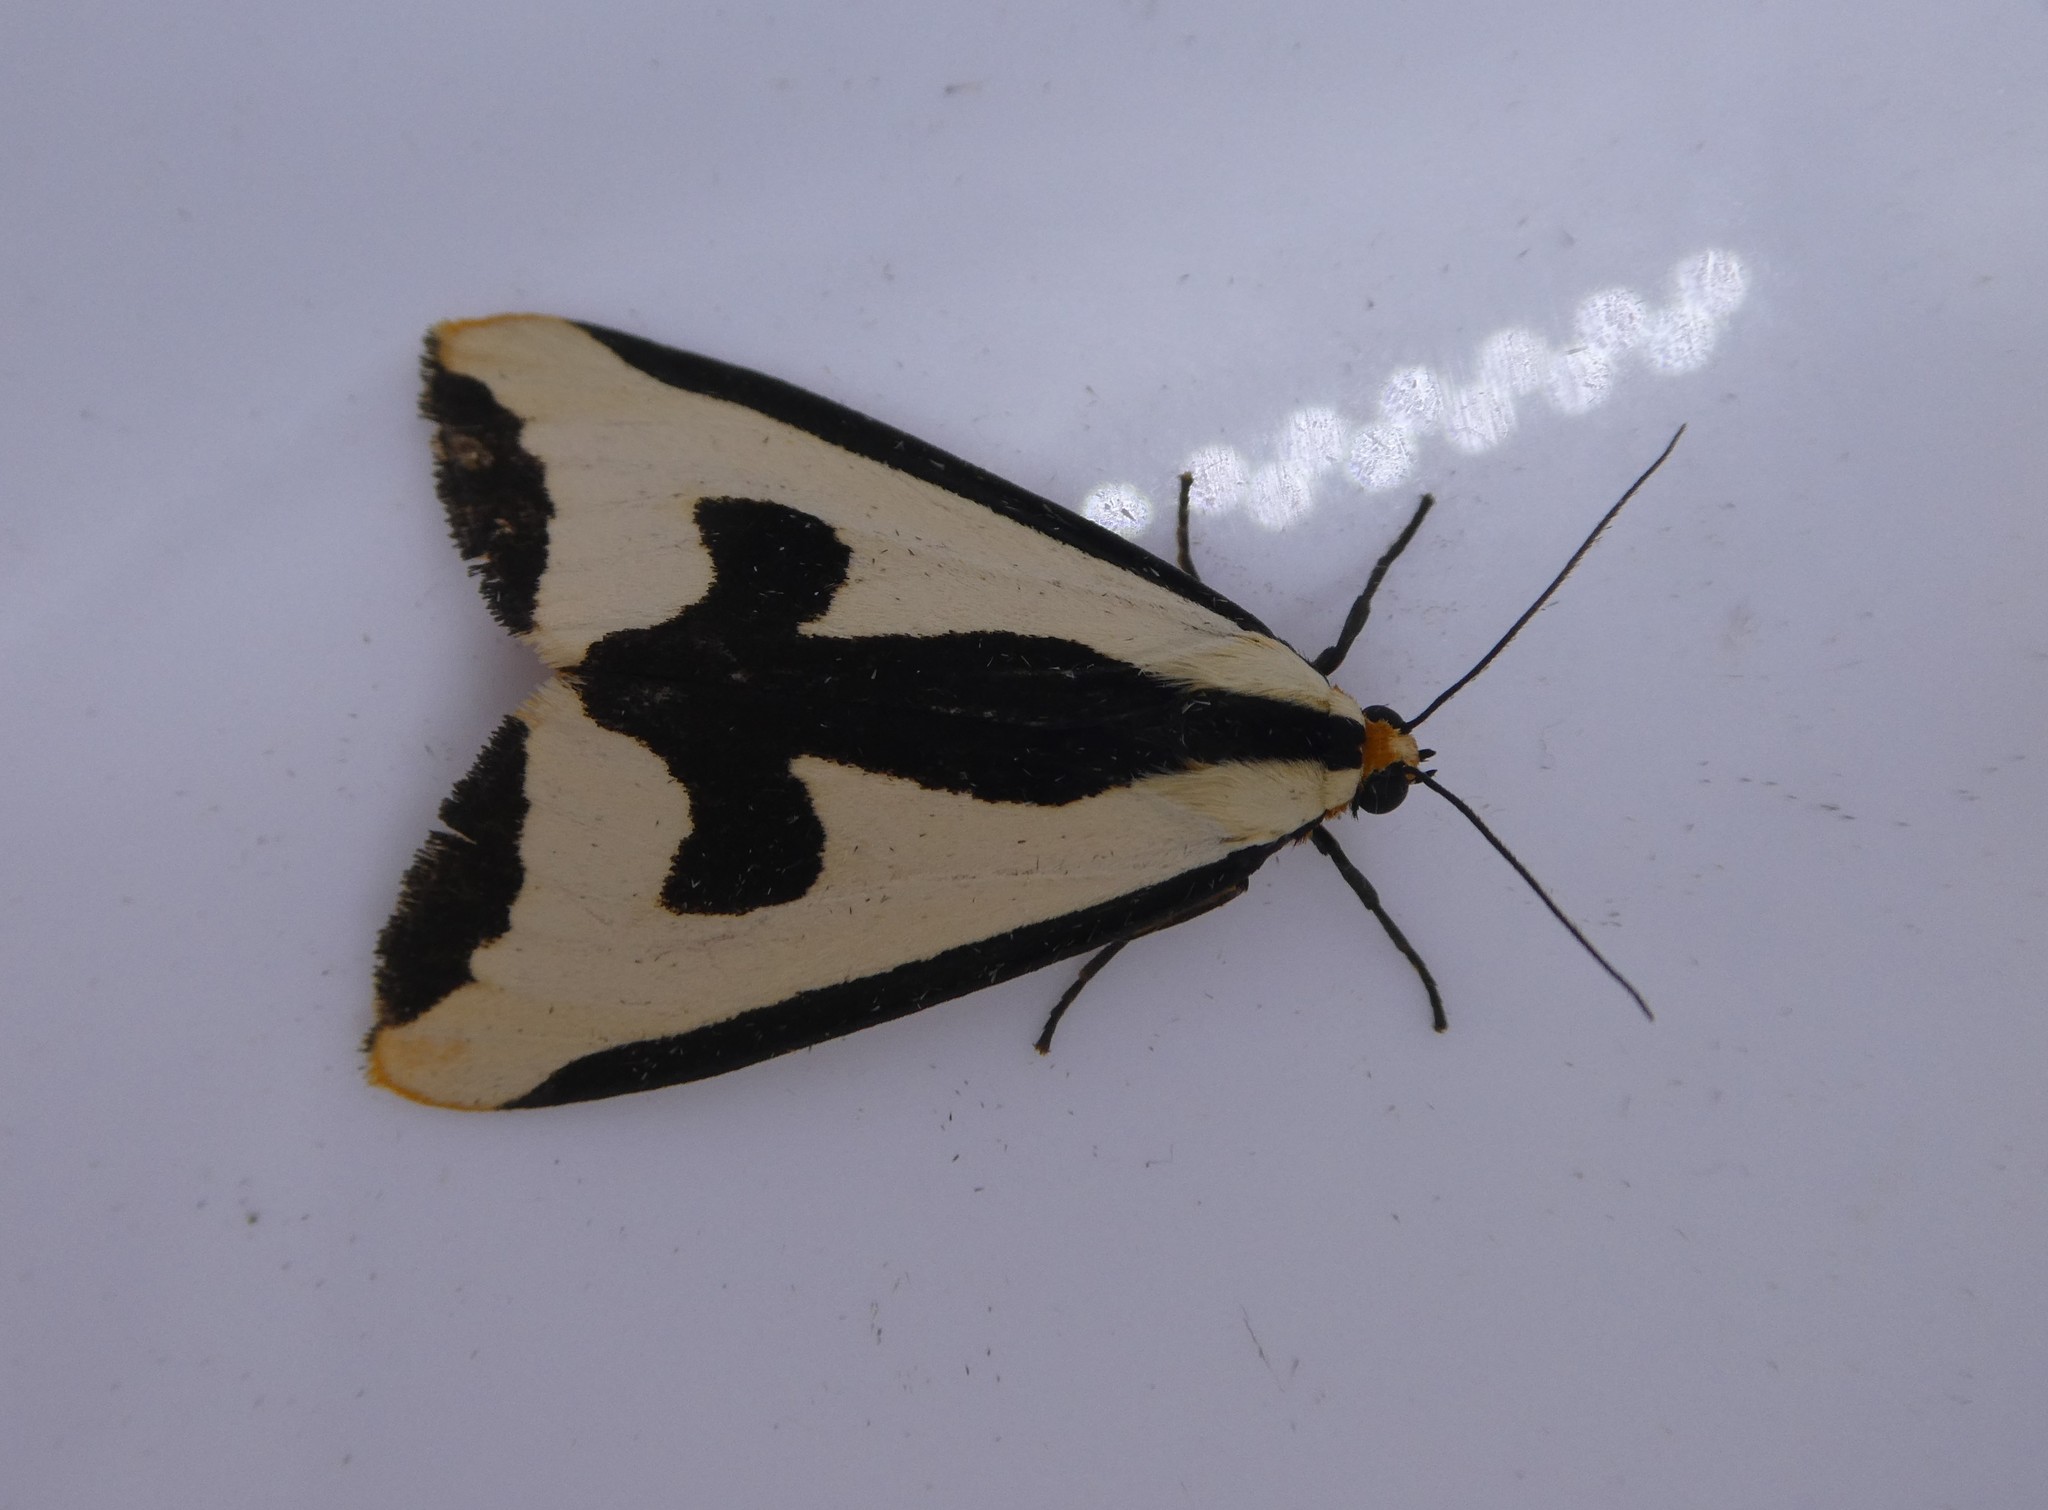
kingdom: Animalia
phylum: Arthropoda
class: Insecta
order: Lepidoptera
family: Erebidae
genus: Haploa
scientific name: Haploa clymene
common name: Clymene moth
